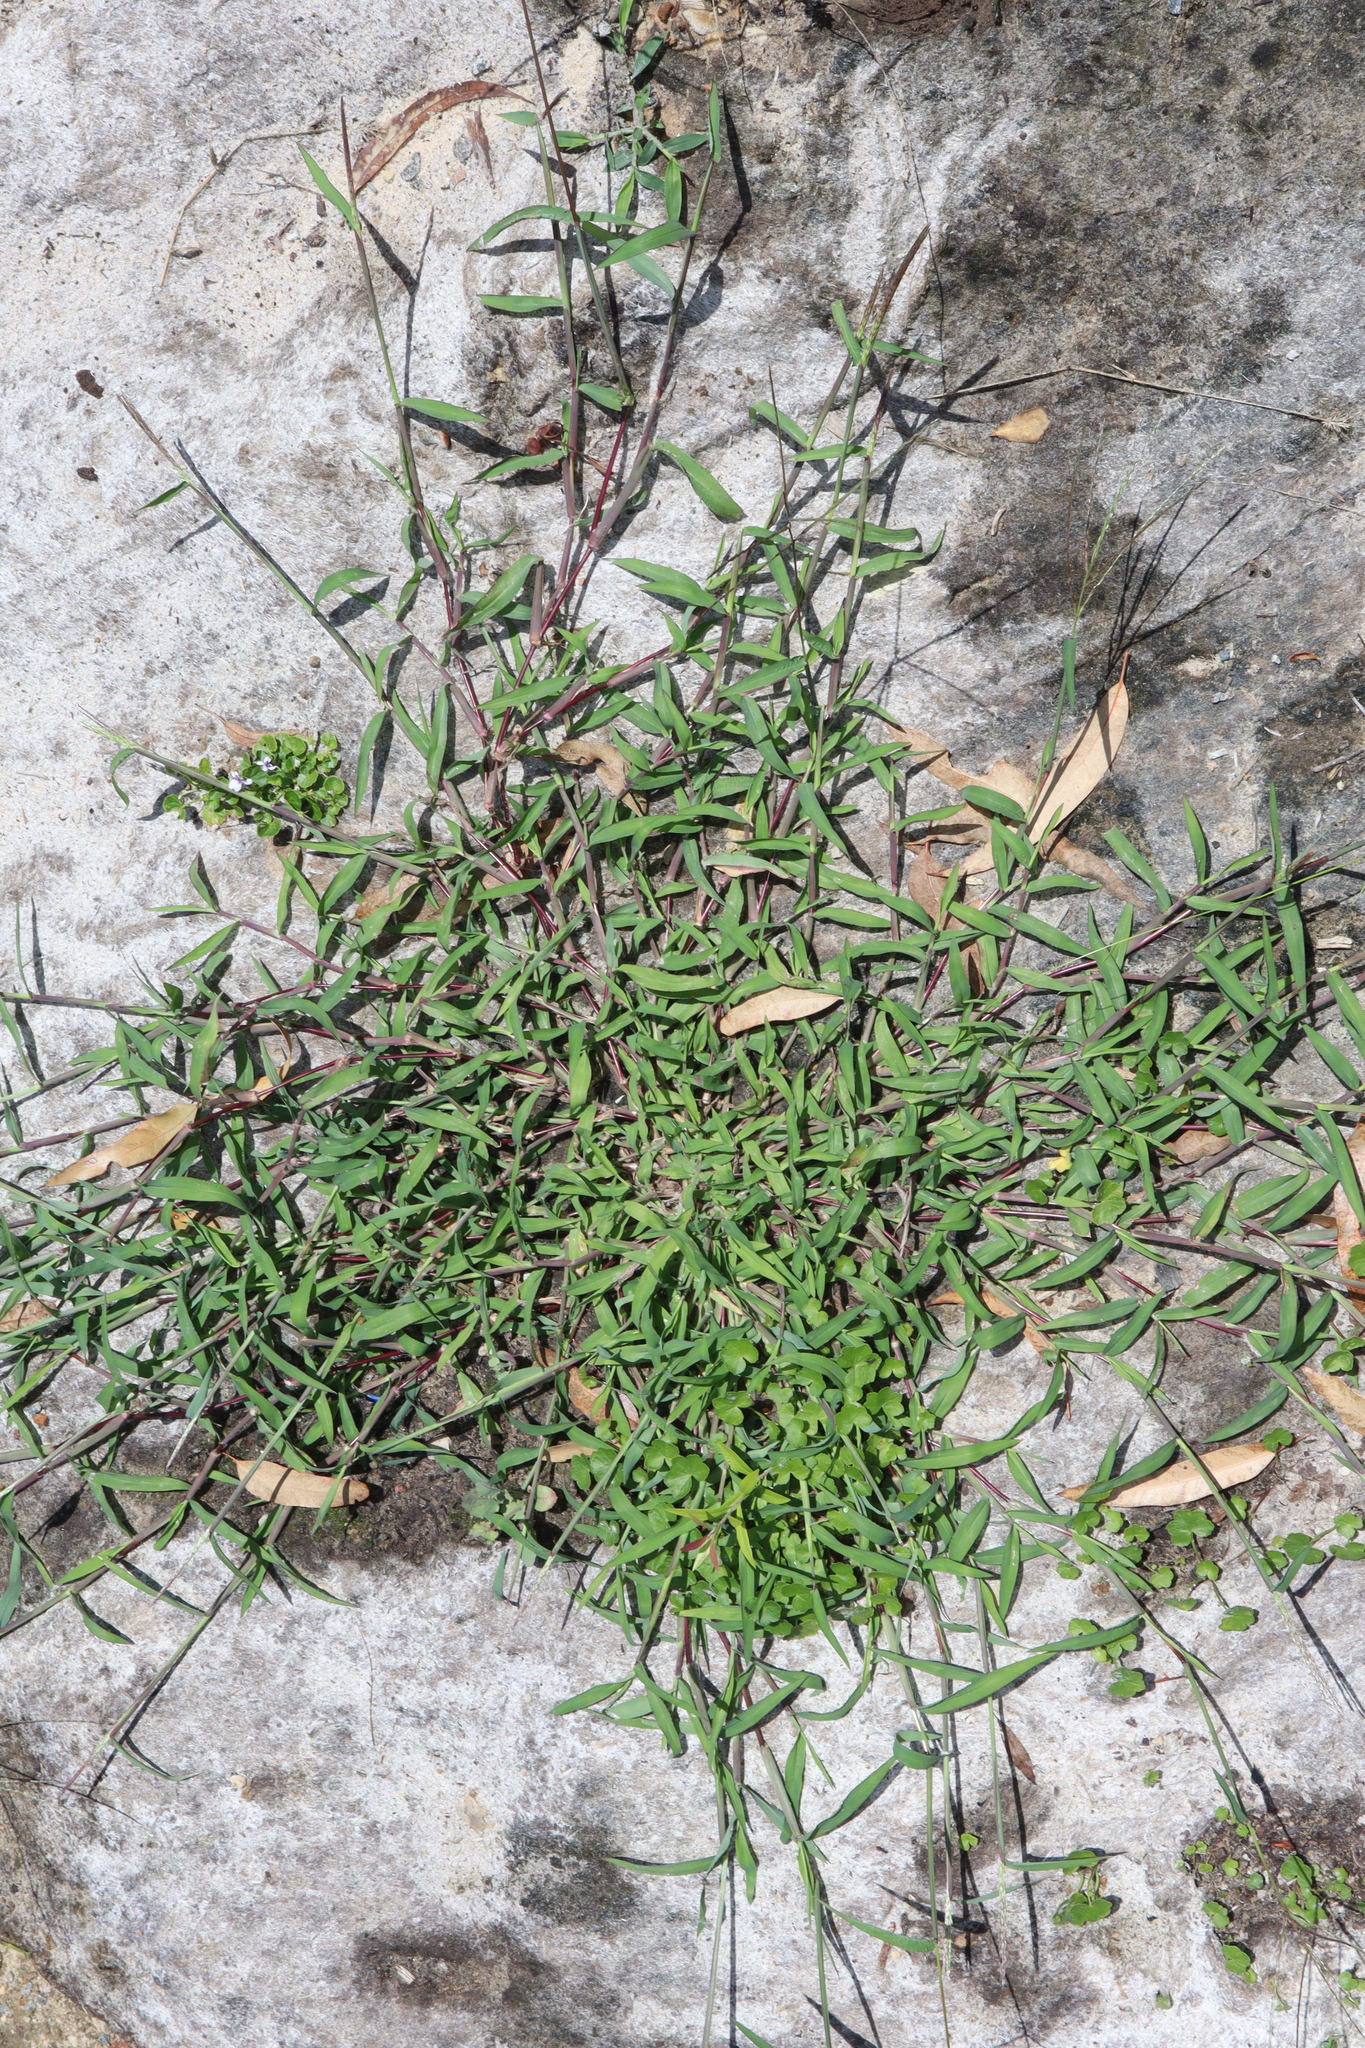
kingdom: Plantae
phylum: Tracheophyta
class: Liliopsida
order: Poales
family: Poaceae
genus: Digitaria
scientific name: Digitaria sanguinalis
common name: Hairy crabgrass
